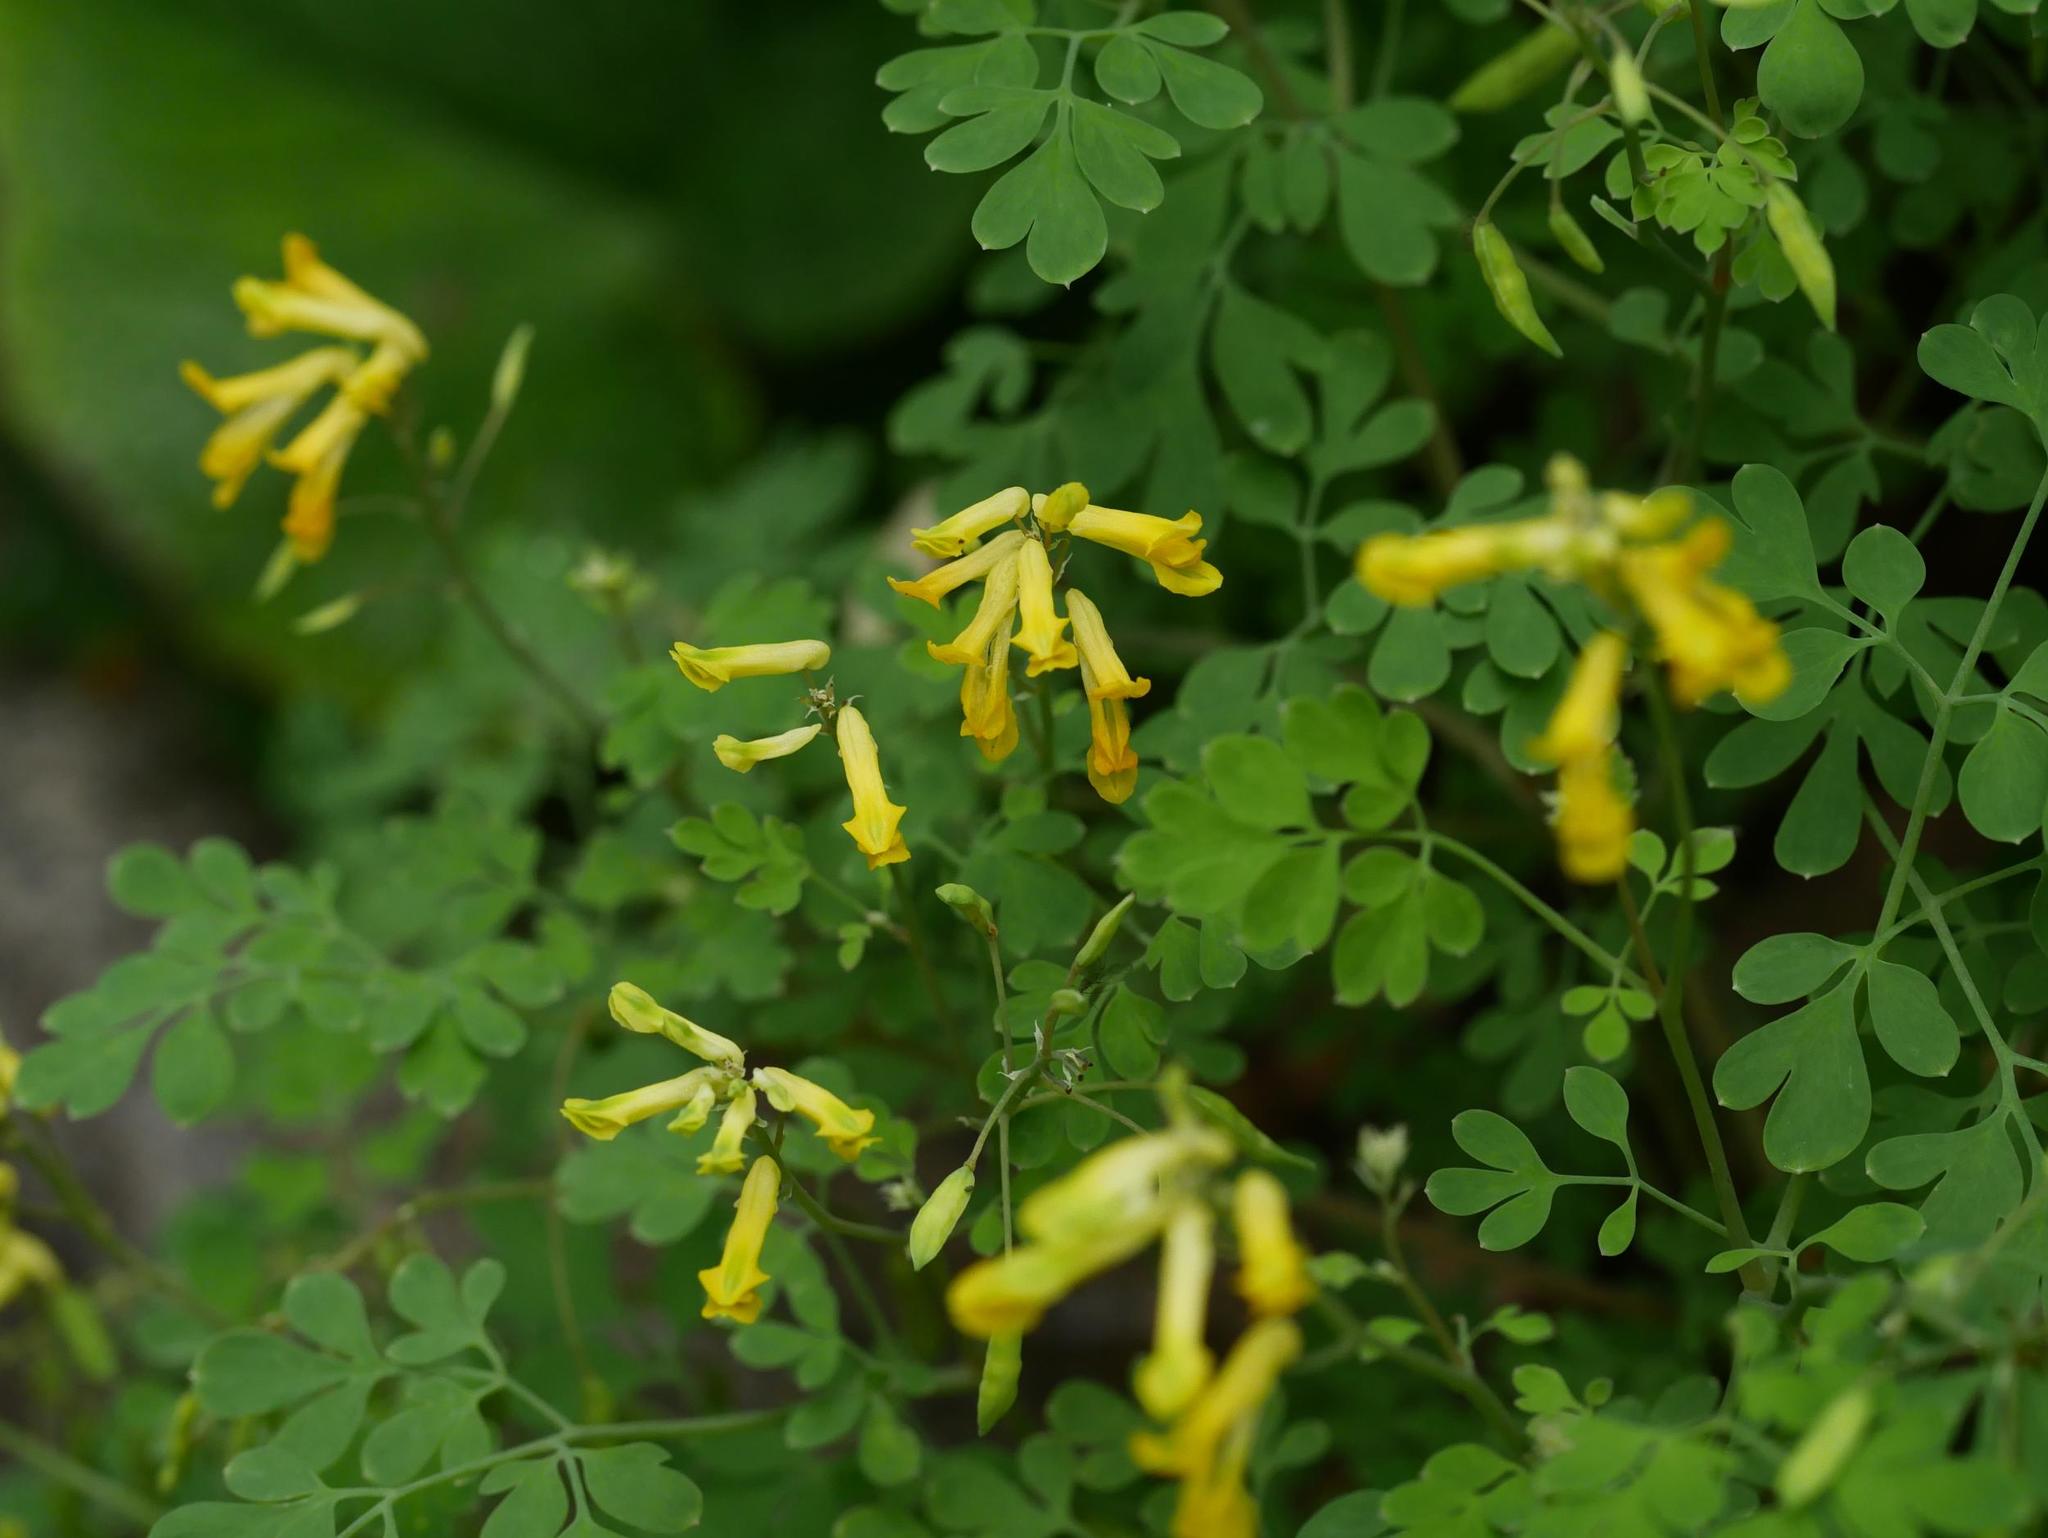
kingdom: Plantae
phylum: Tracheophyta
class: Magnoliopsida
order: Ranunculales
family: Papaveraceae
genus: Pseudofumaria
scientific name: Pseudofumaria lutea
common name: Yellow corydalis
